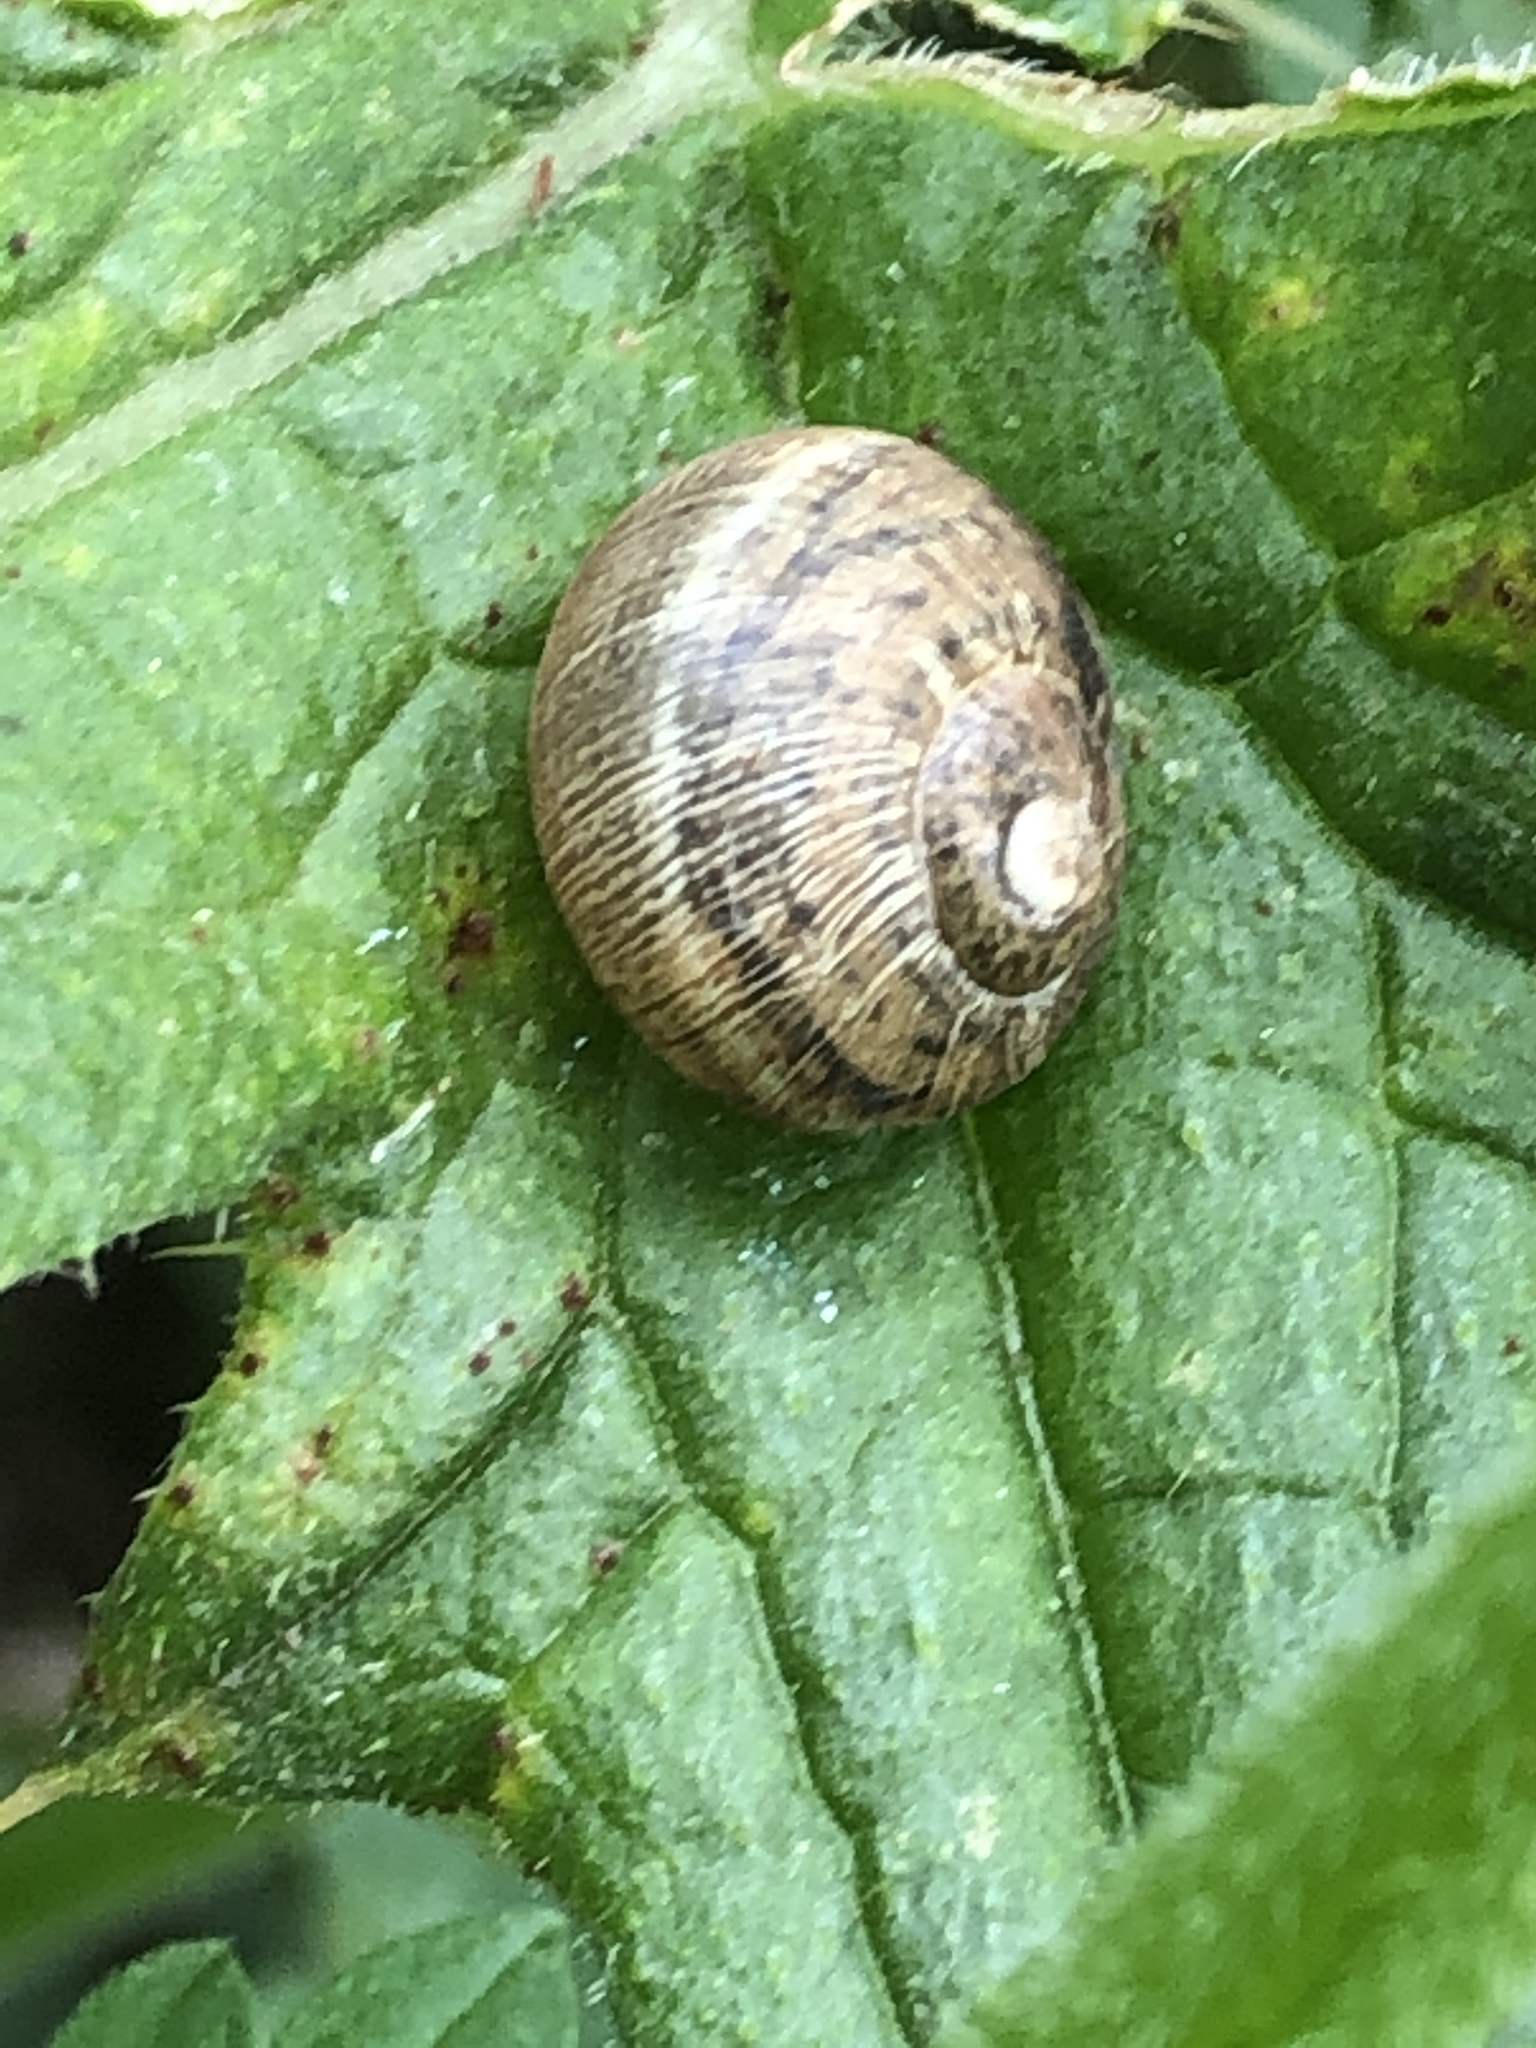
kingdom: Animalia
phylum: Mollusca
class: Gastropoda
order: Stylommatophora
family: Helicidae
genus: Cornu
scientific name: Cornu aspersum
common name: Brown garden snail
